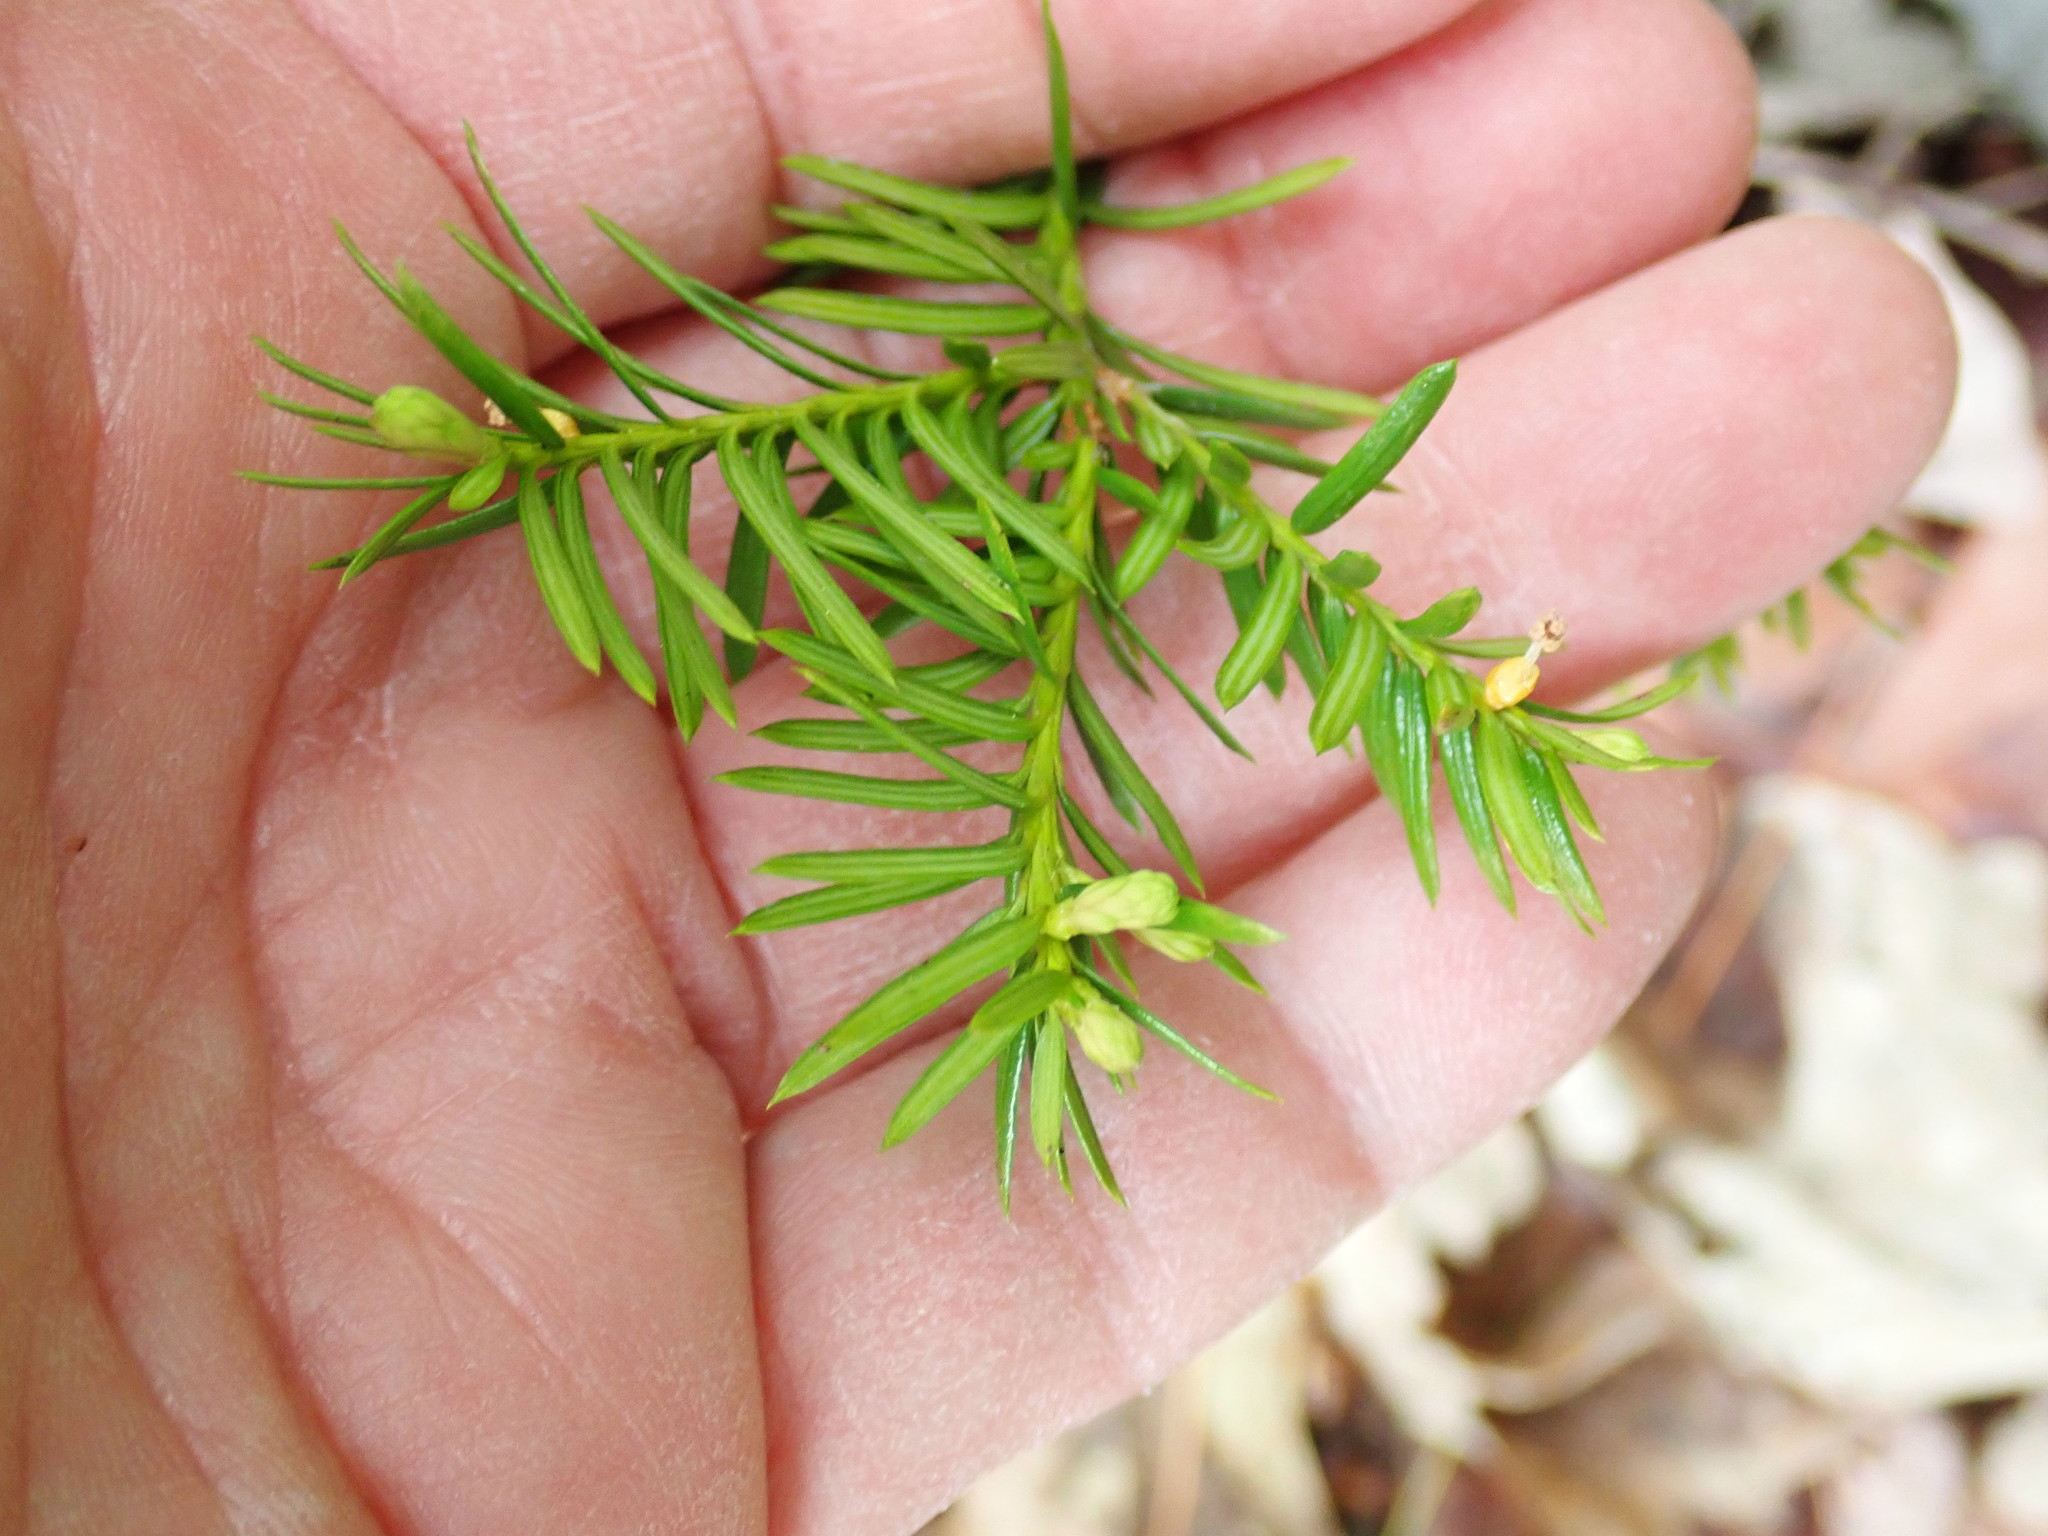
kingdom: Plantae
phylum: Tracheophyta
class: Pinopsida
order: Pinales
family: Taxaceae
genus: Taxus
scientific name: Taxus canadensis
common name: American yew
